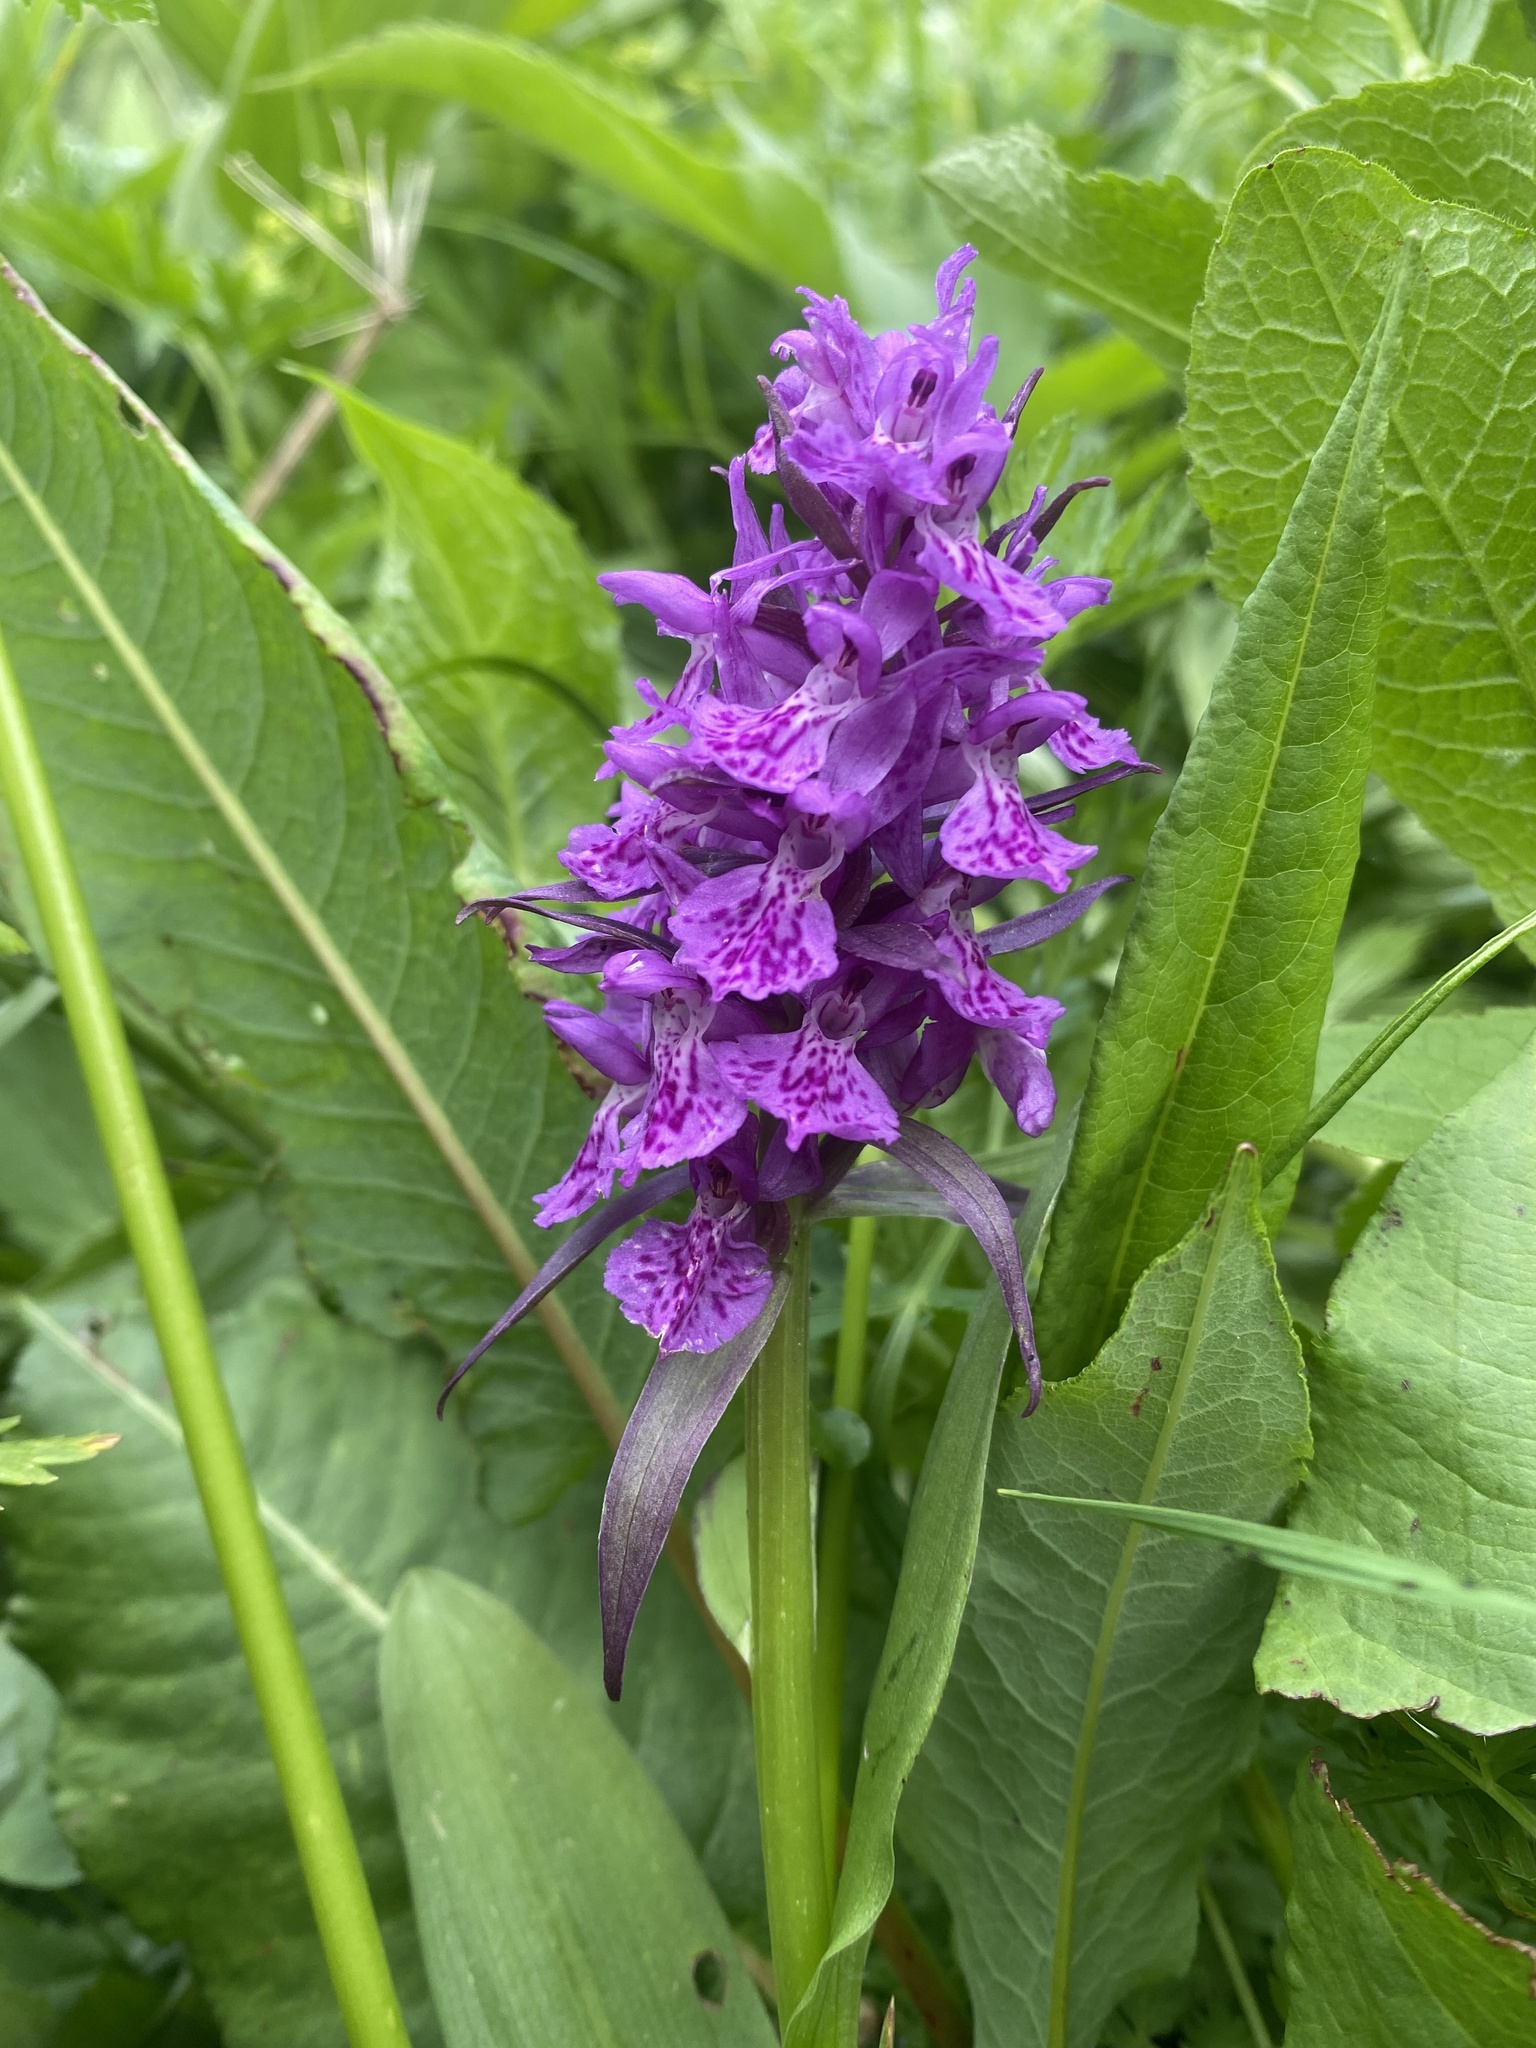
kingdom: Plantae
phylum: Tracheophyta
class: Liliopsida
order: Asparagales
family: Orchidaceae
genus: Dactylorhiza
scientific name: Dactylorhiza euxina
